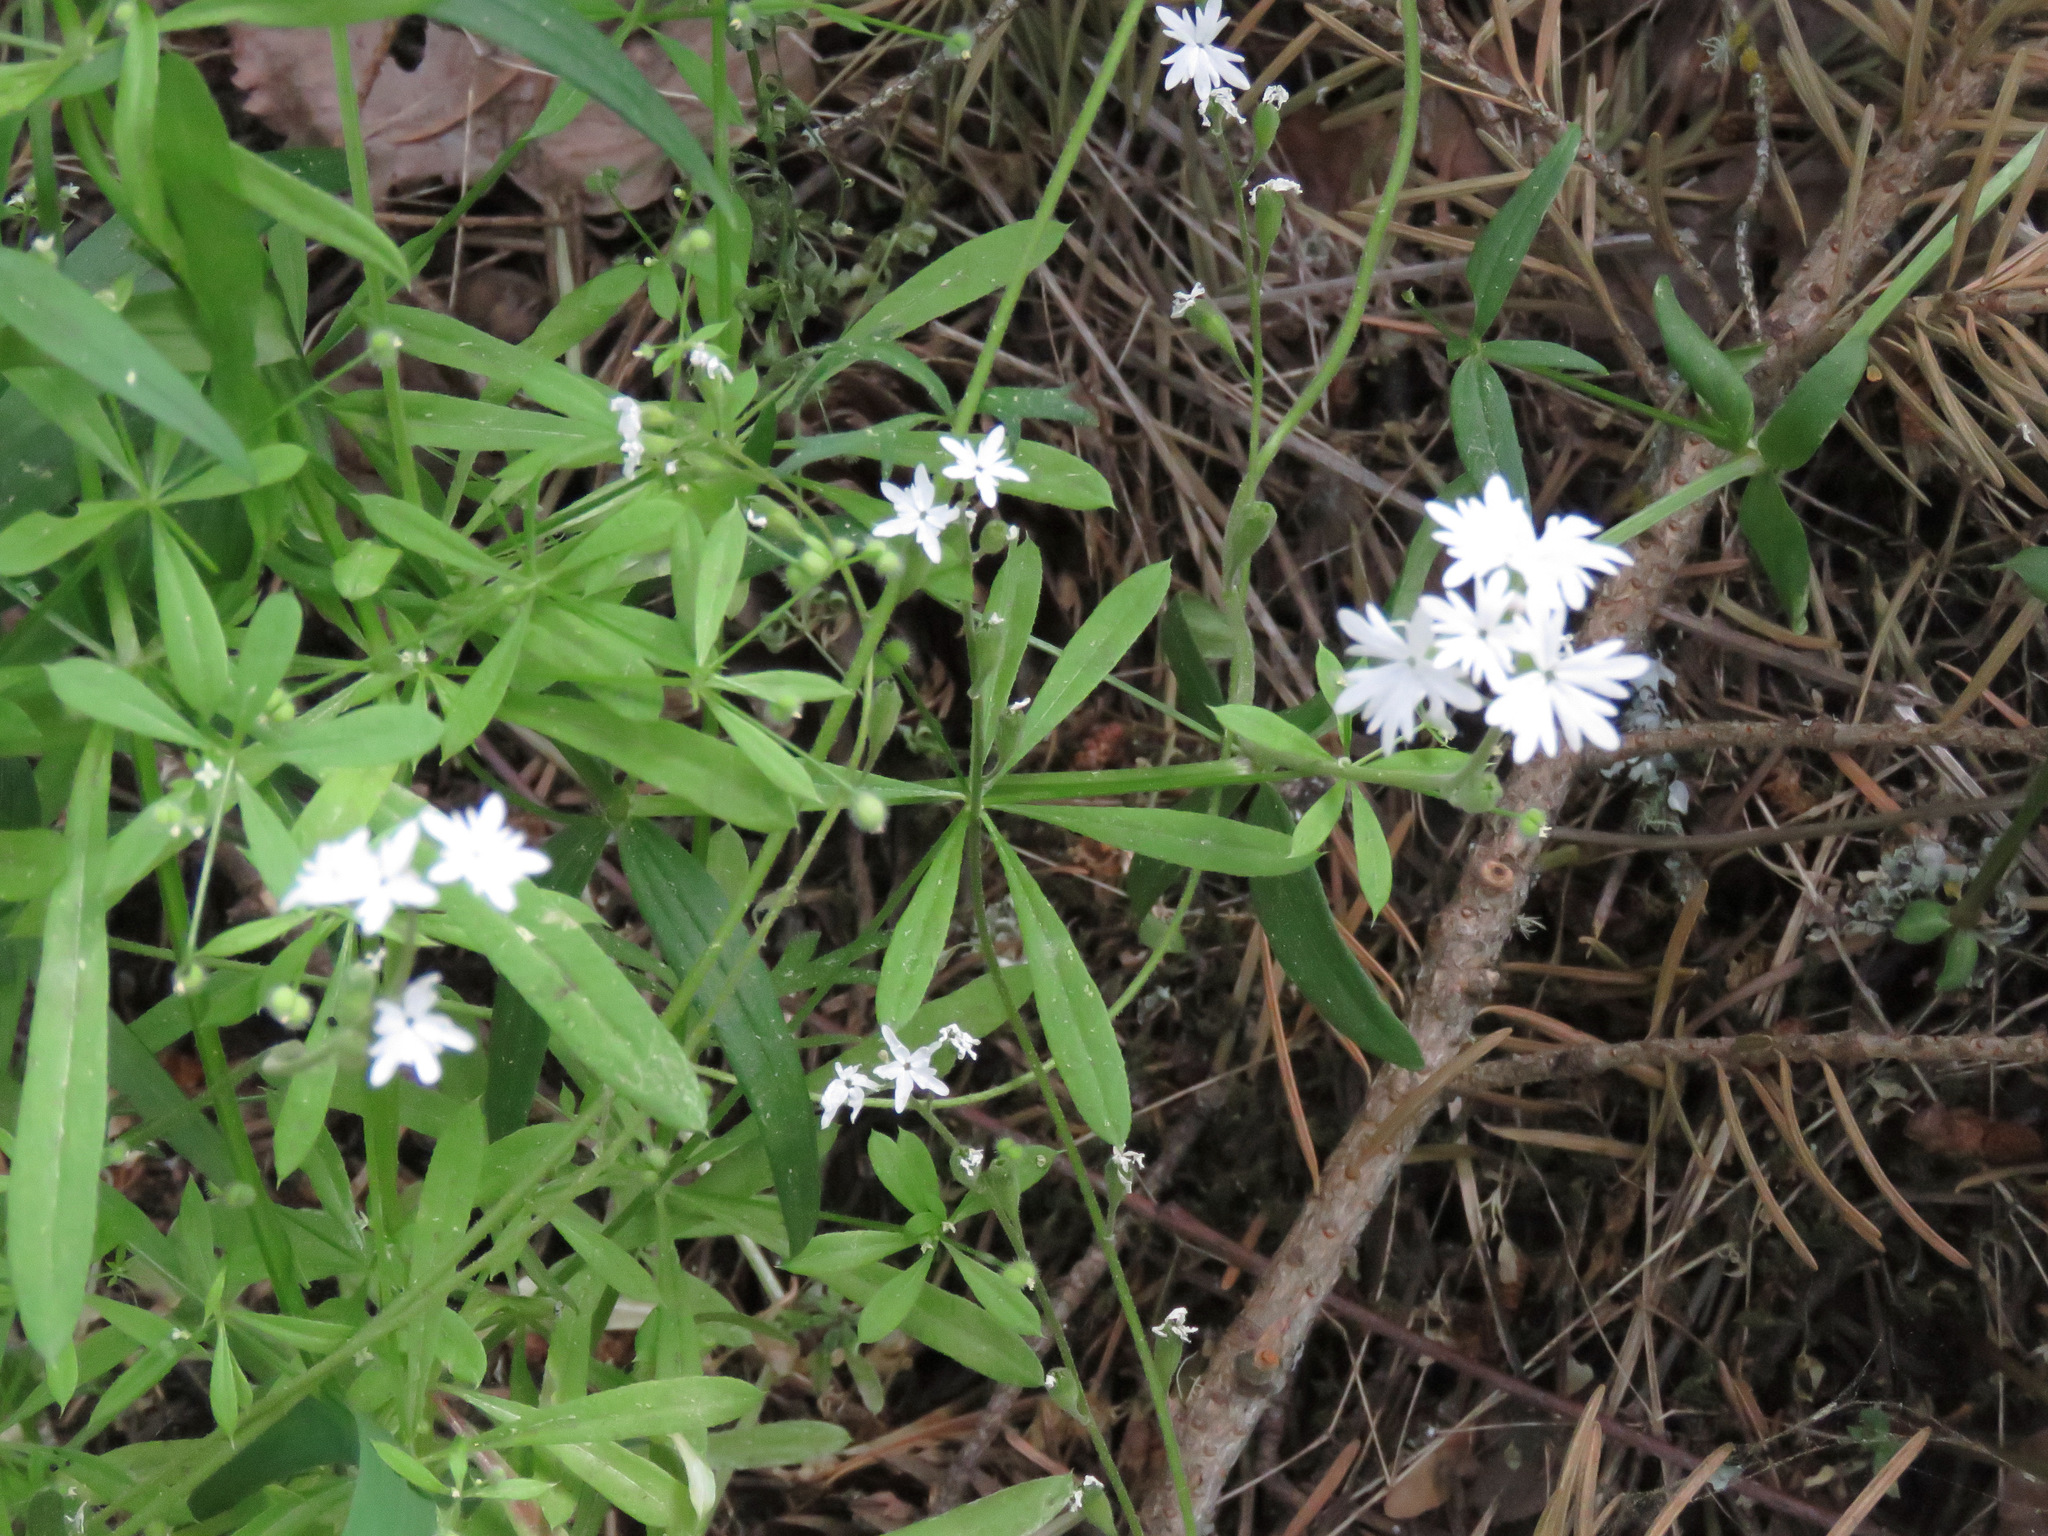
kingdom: Plantae
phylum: Tracheophyta
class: Magnoliopsida
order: Saxifragales
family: Saxifragaceae
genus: Lithophragma
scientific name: Lithophragma parviflorum
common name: Small-flowered fringe-cup
